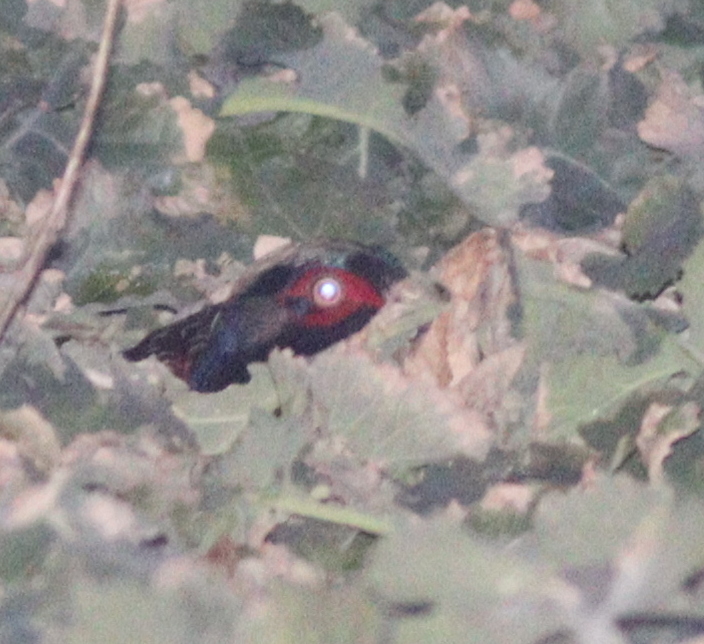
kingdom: Animalia
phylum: Chordata
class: Aves
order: Galliformes
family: Phasianidae
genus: Phasianus
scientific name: Phasianus colchicus
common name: Common pheasant
